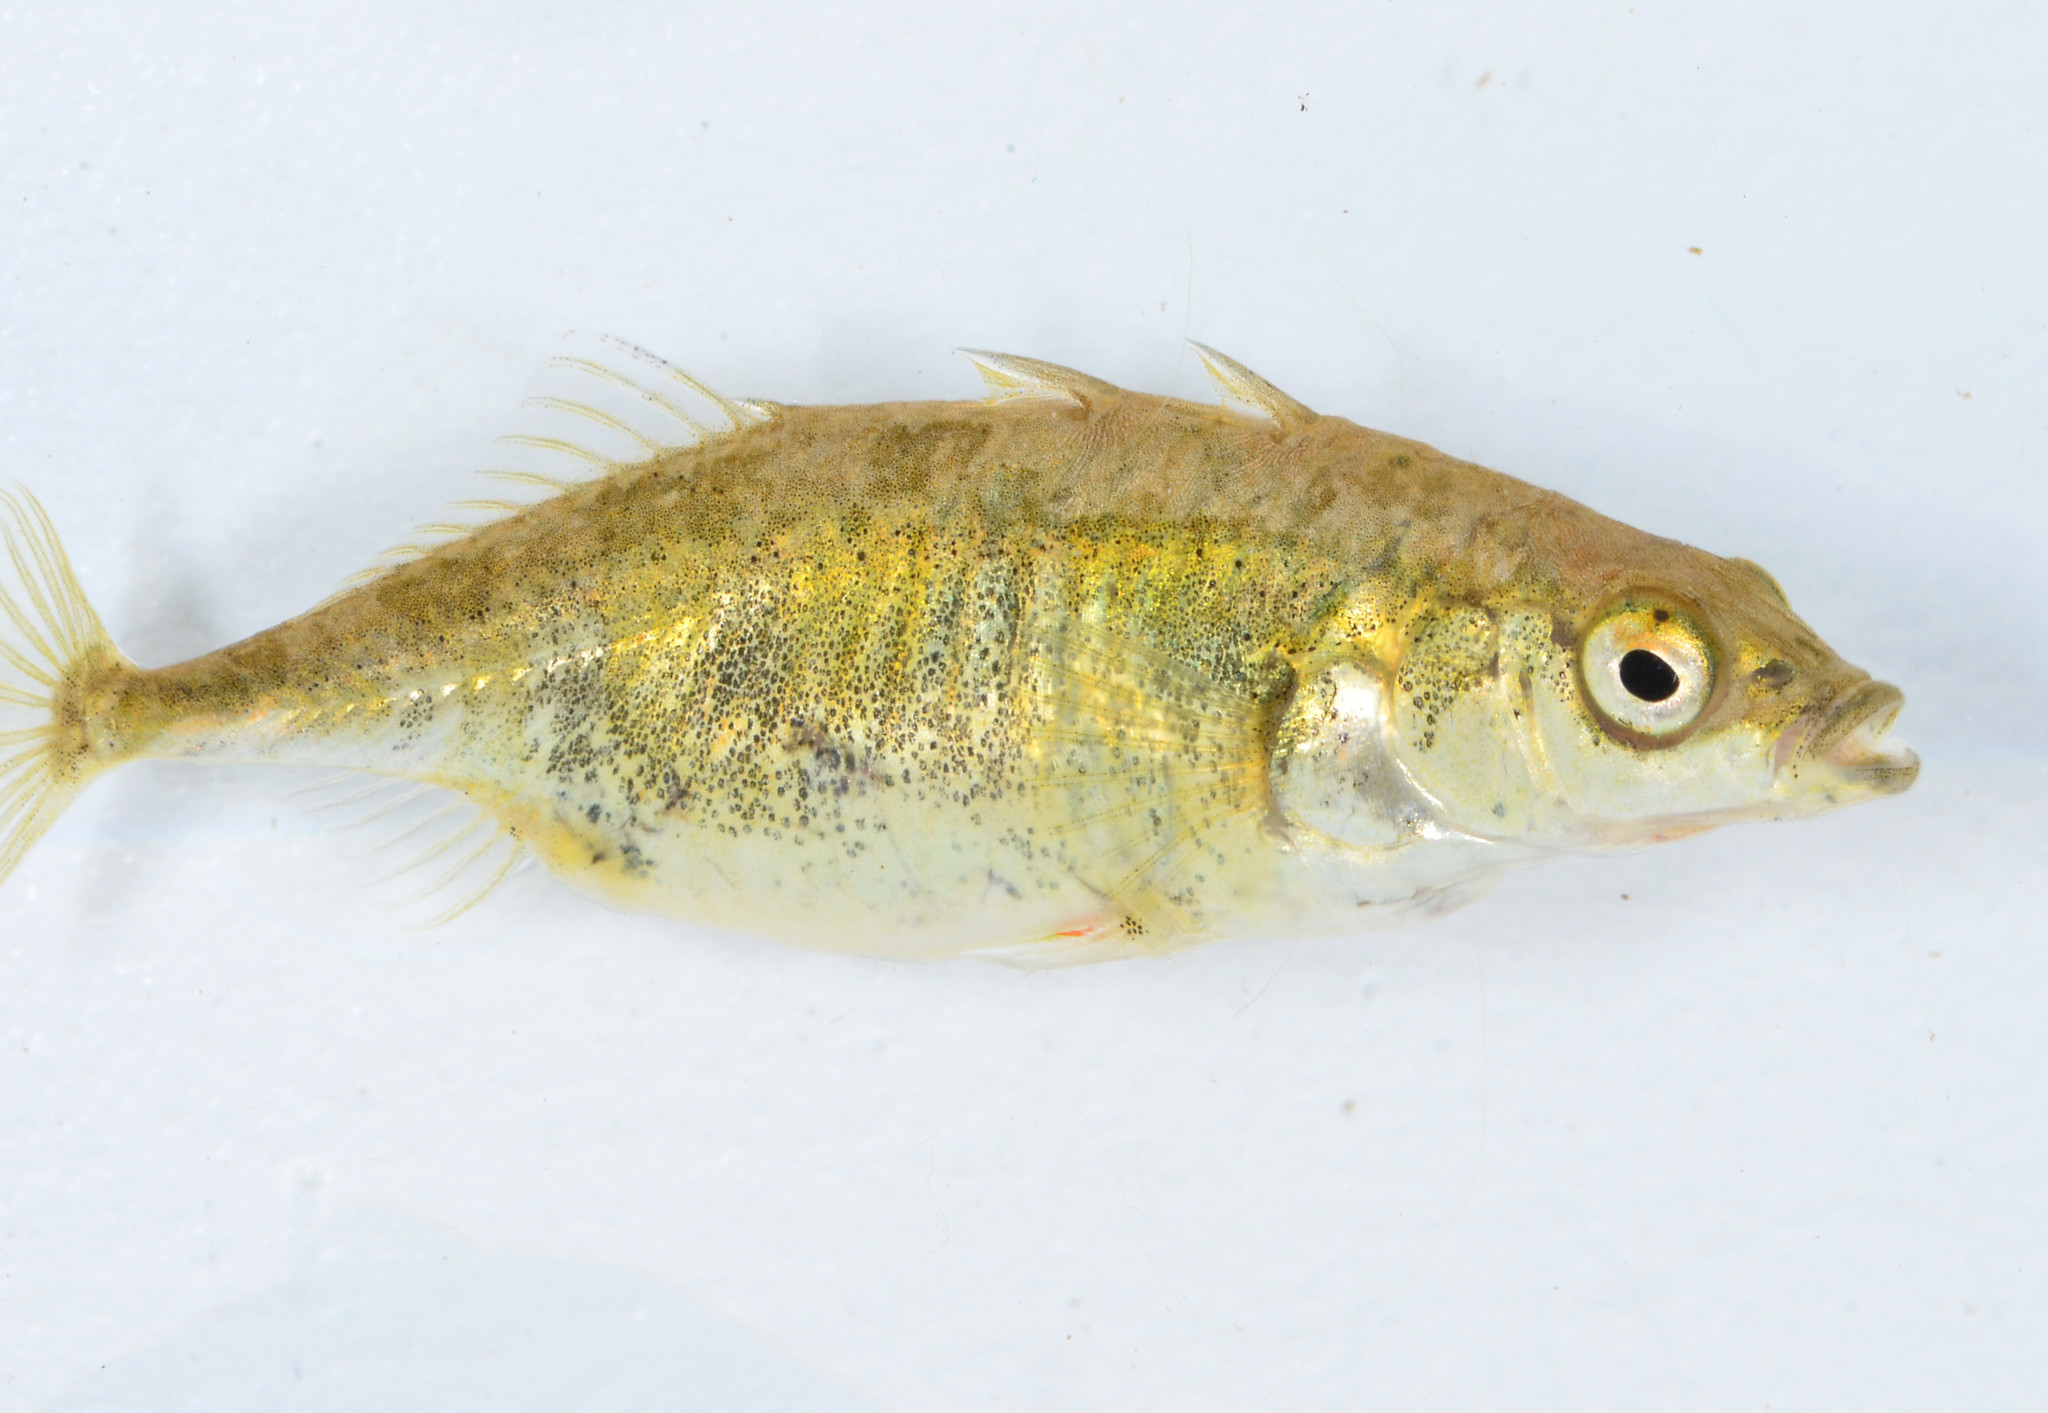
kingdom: Animalia
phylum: Chordata
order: Gasterosteiformes
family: Gasterosteidae
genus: Gasterosteus
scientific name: Gasterosteus aculeatus
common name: Three-spined stickleback
